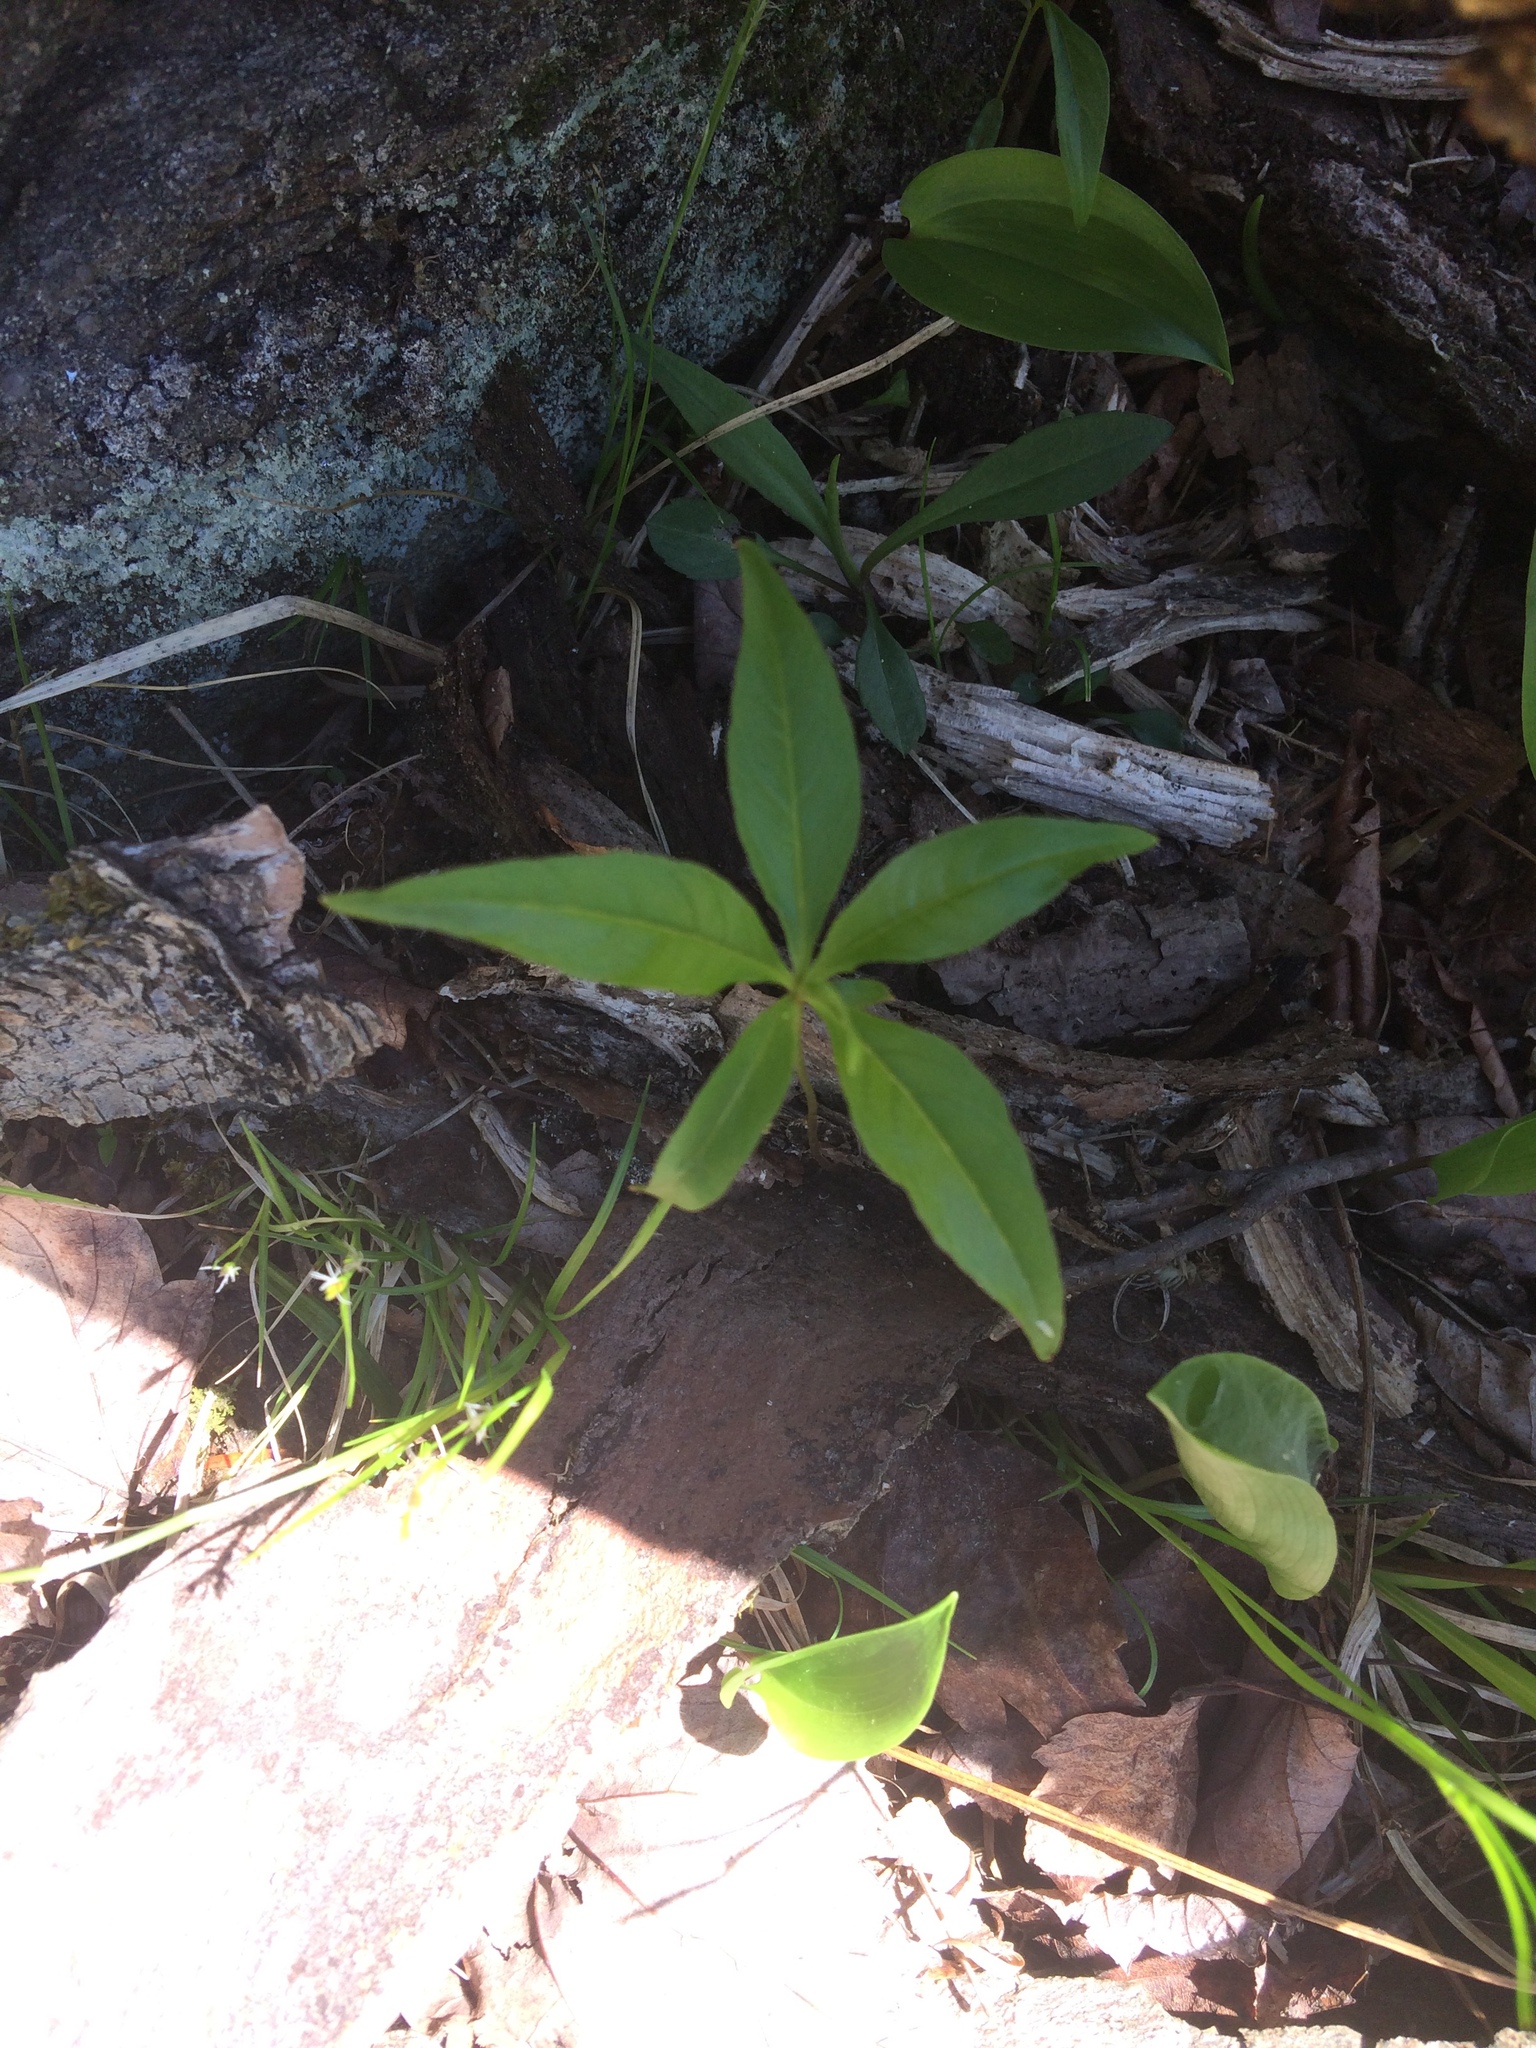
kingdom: Plantae
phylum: Tracheophyta
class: Magnoliopsida
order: Ericales
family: Primulaceae
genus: Lysimachia
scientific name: Lysimachia borealis
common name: American starflower
